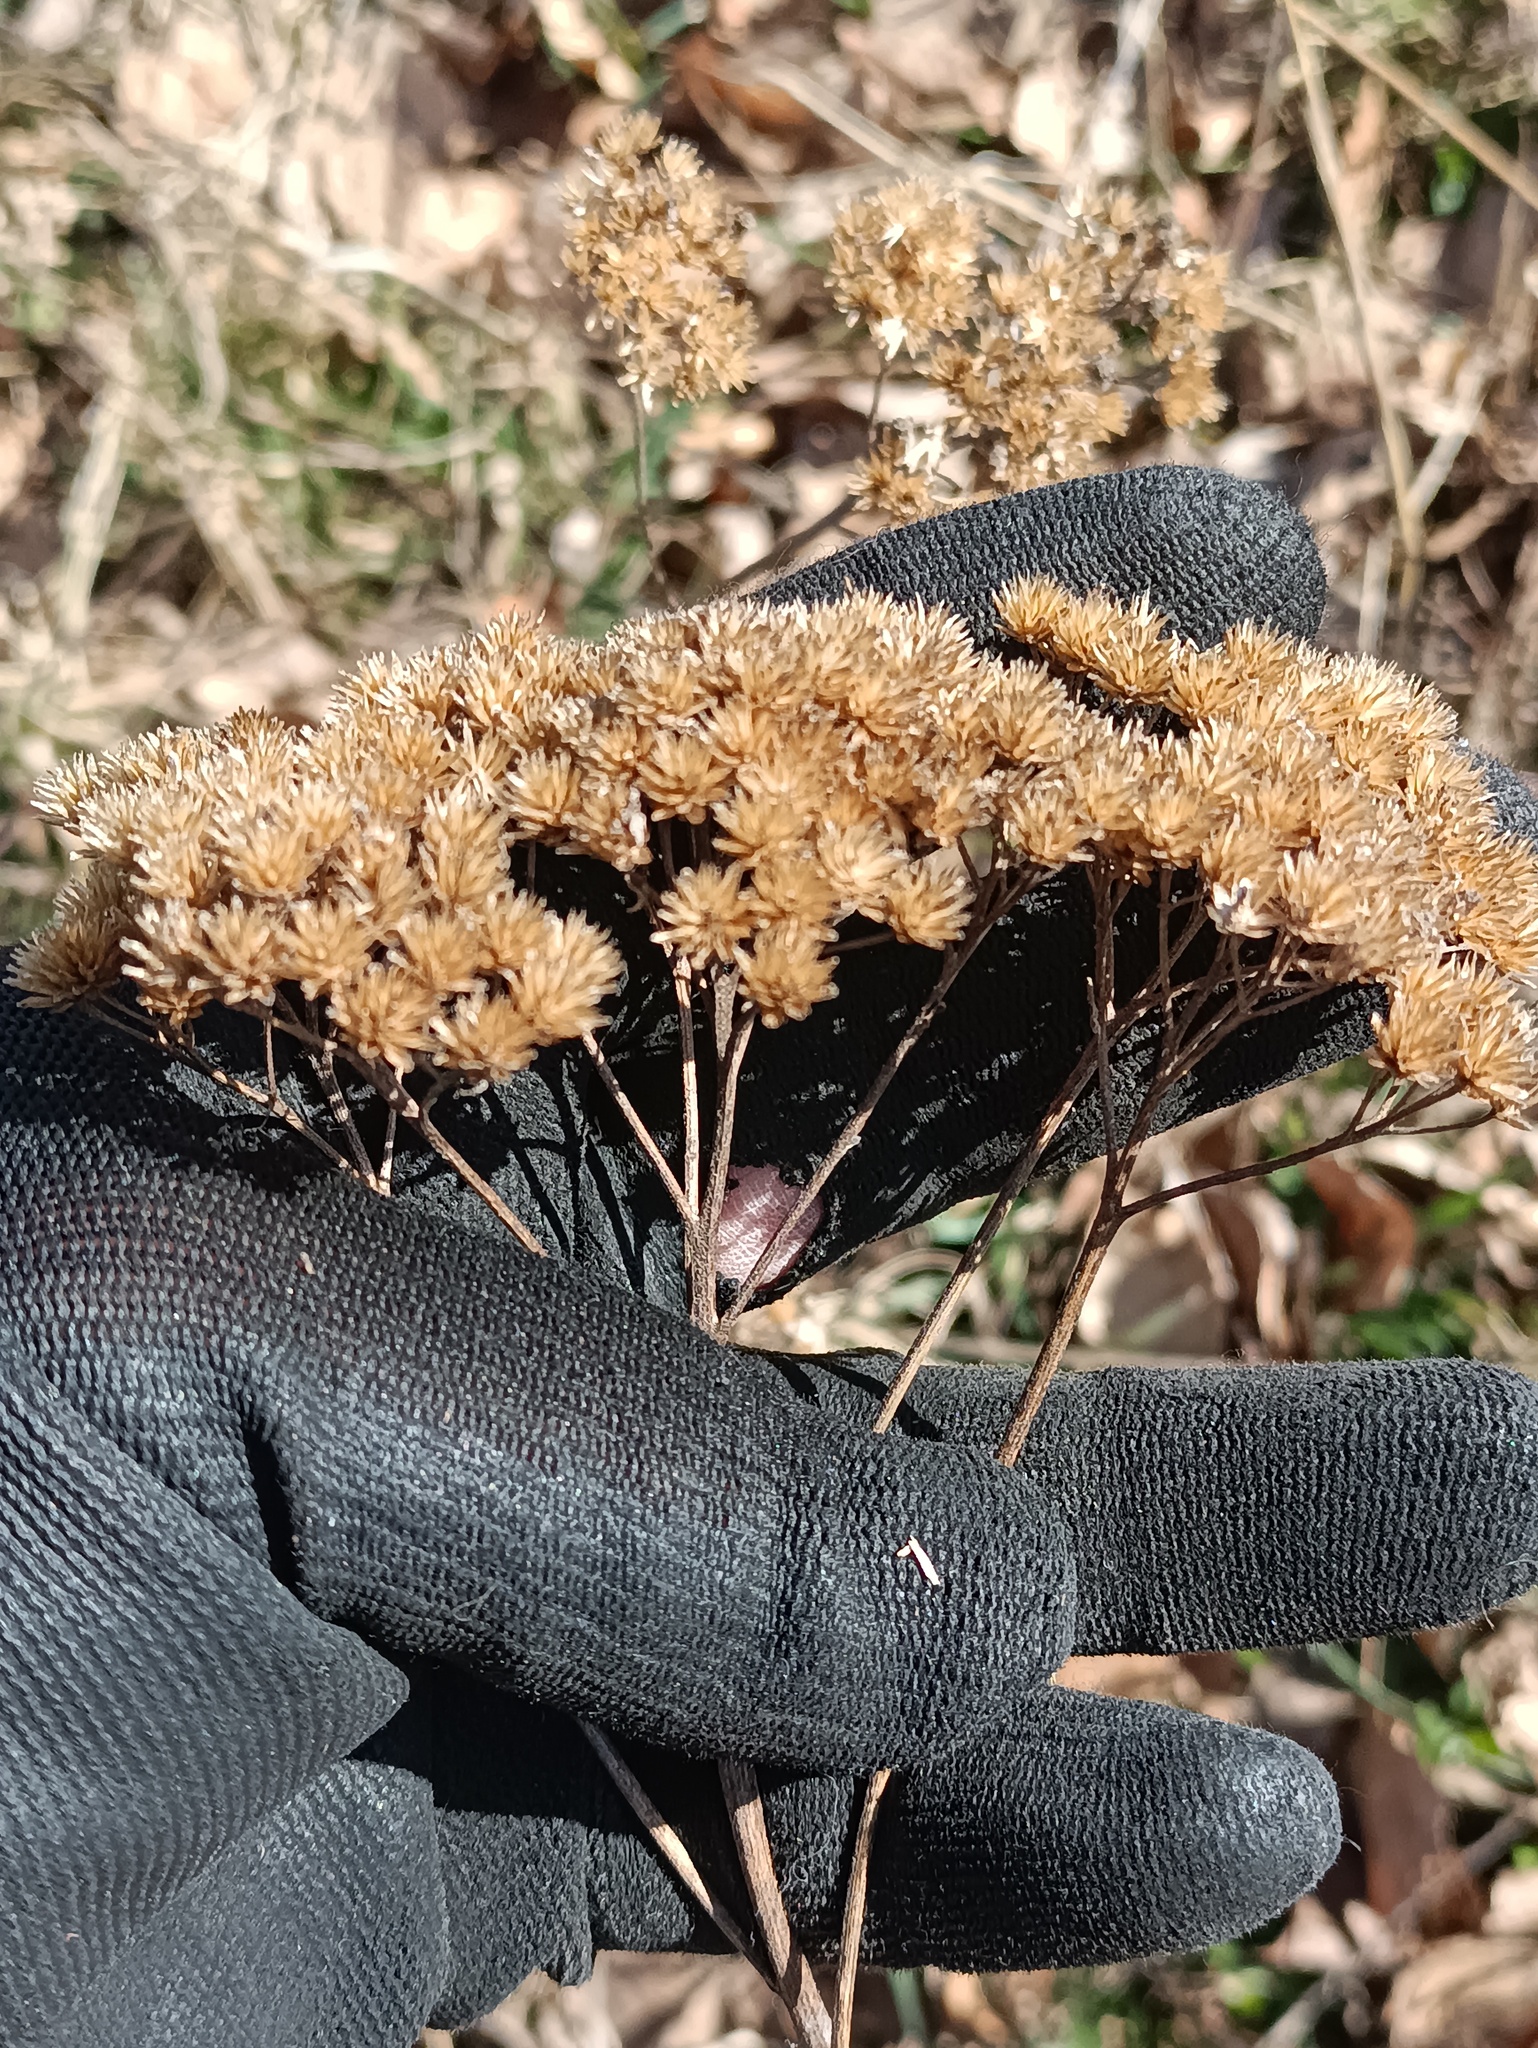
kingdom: Plantae
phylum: Tracheophyta
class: Magnoliopsida
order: Asterales
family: Asteraceae
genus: Achillea
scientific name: Achillea millefolium
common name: Yarrow
